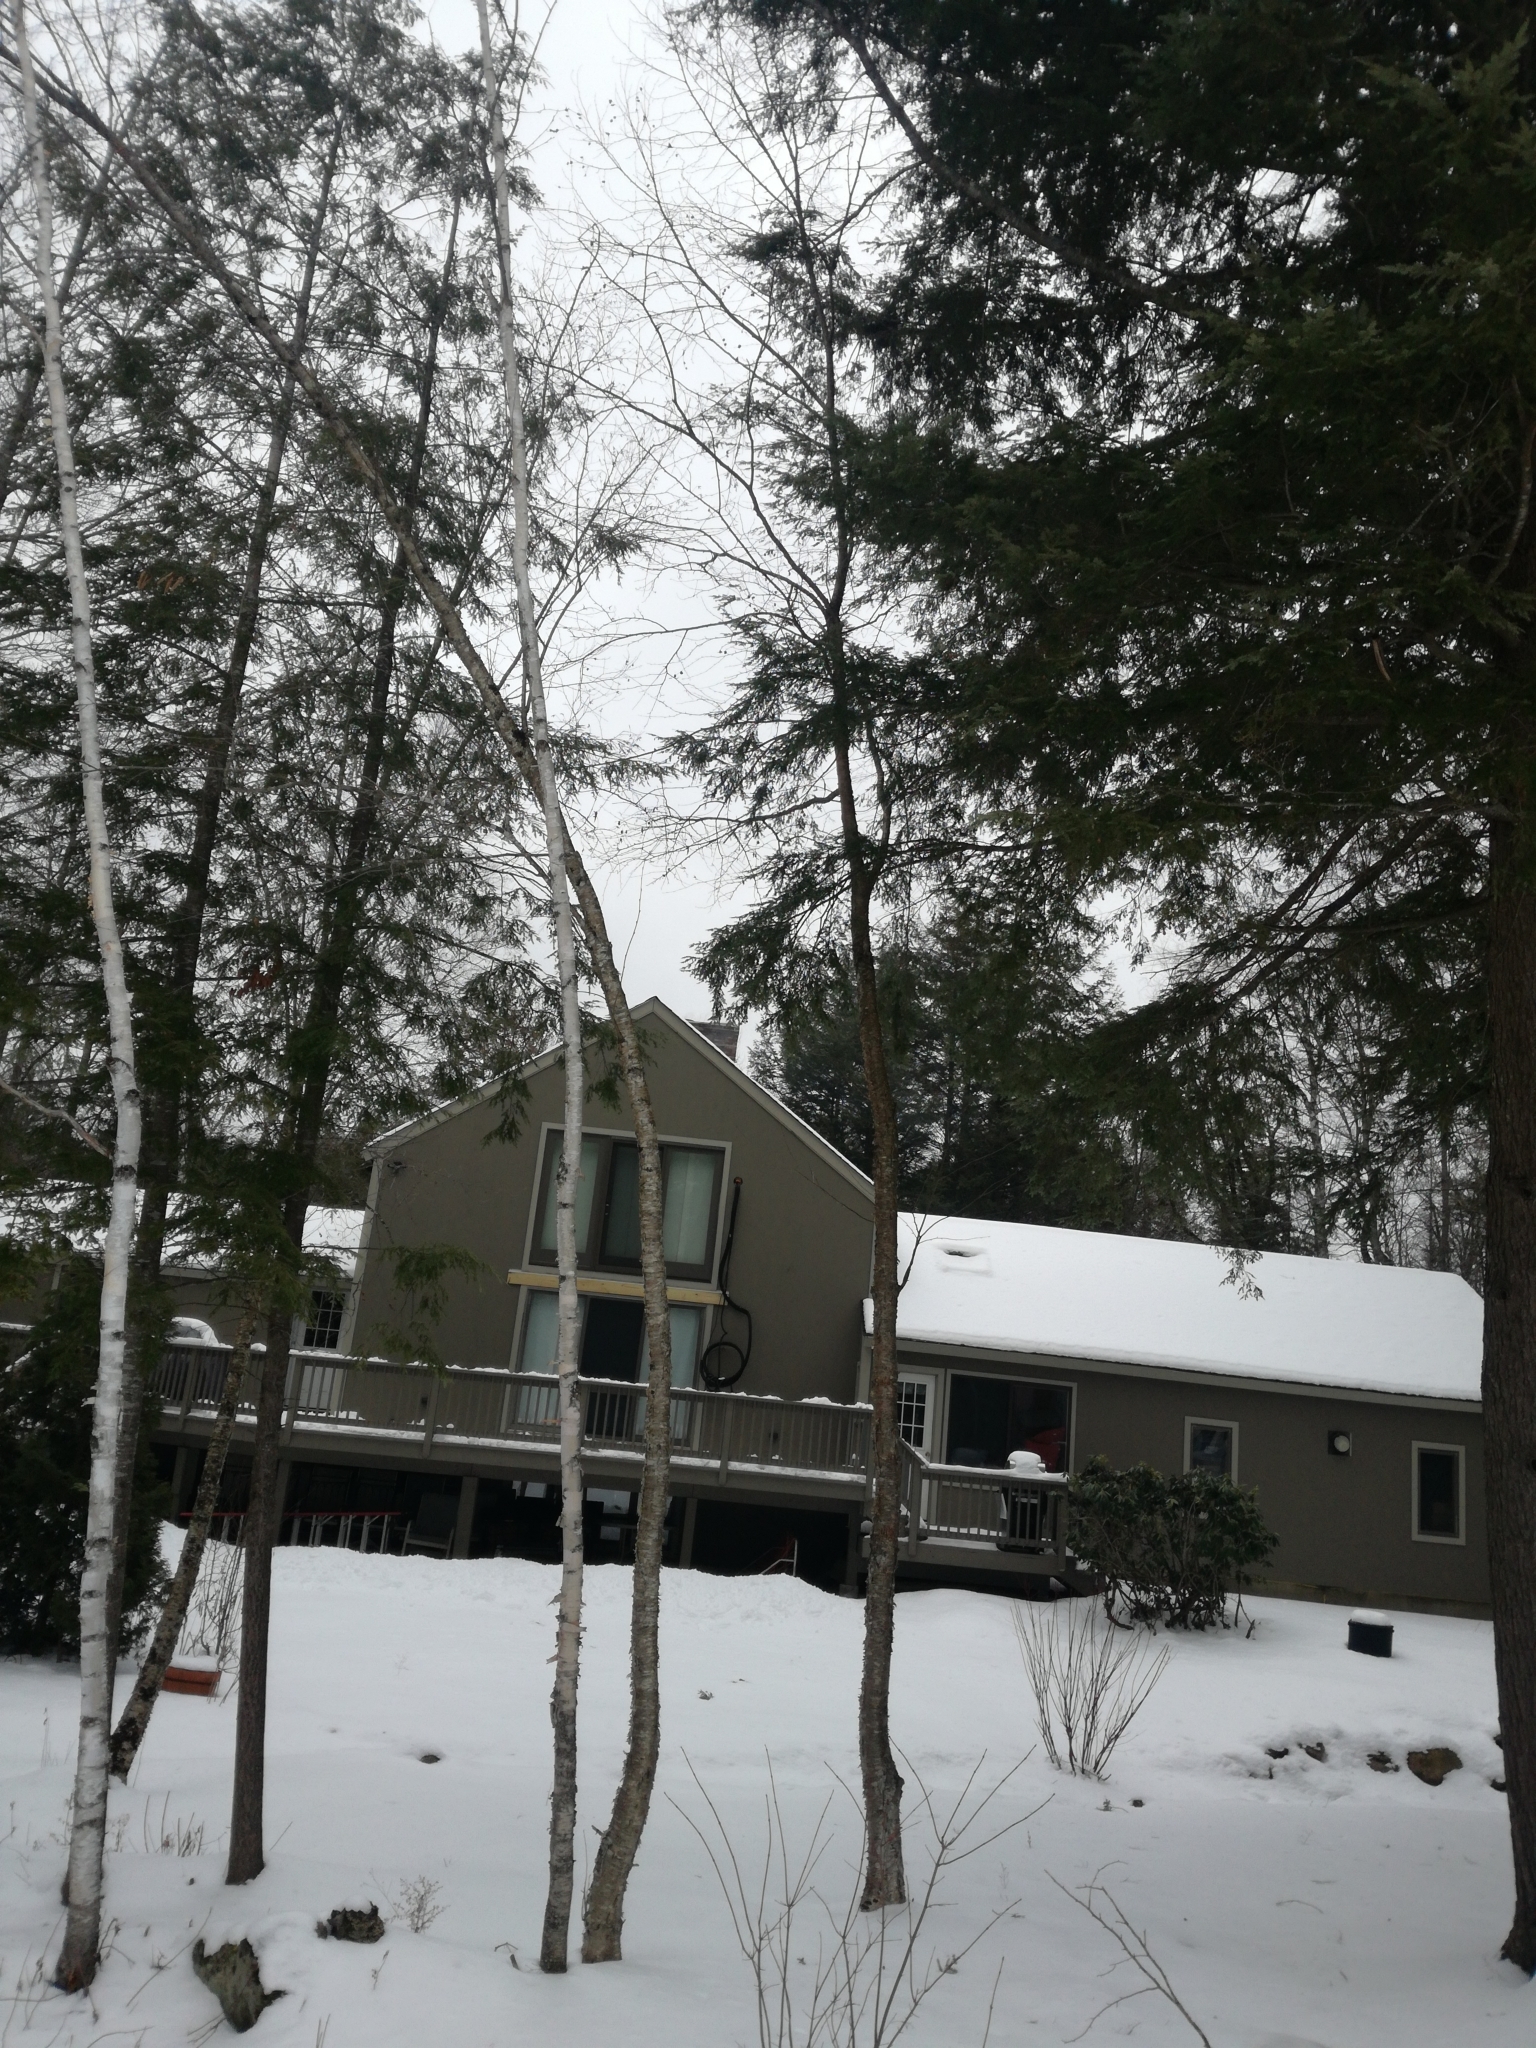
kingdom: Plantae
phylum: Tracheophyta
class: Magnoliopsida
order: Fagales
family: Betulaceae
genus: Betula
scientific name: Betula papyrifera
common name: Paper birch
